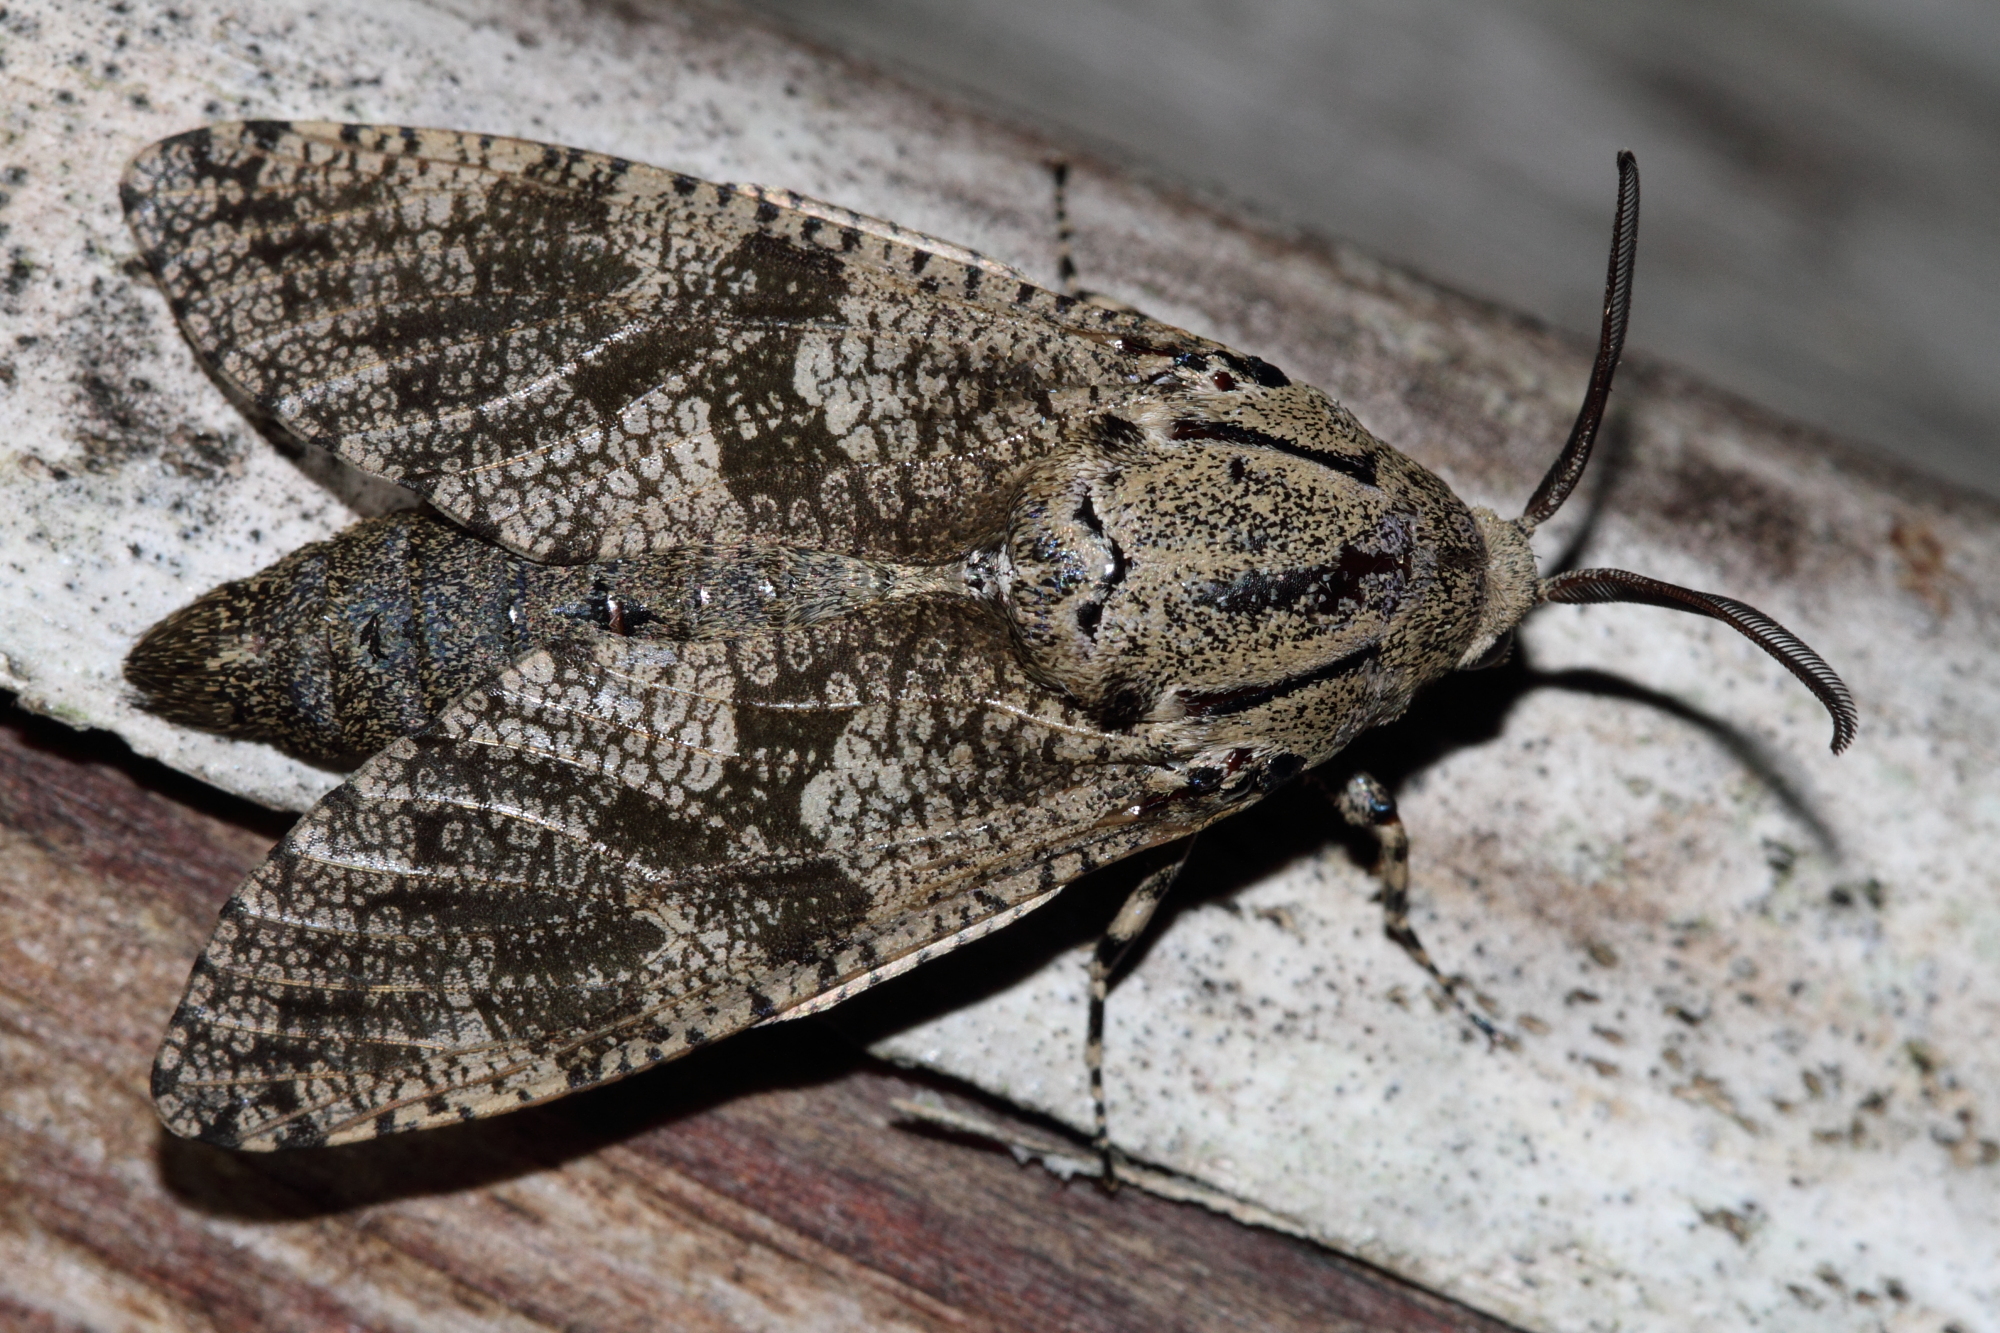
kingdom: Animalia
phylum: Arthropoda
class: Insecta
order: Lepidoptera
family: Cossidae
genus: Prionoxystus
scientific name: Prionoxystus robiniae
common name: Carpenterworm
